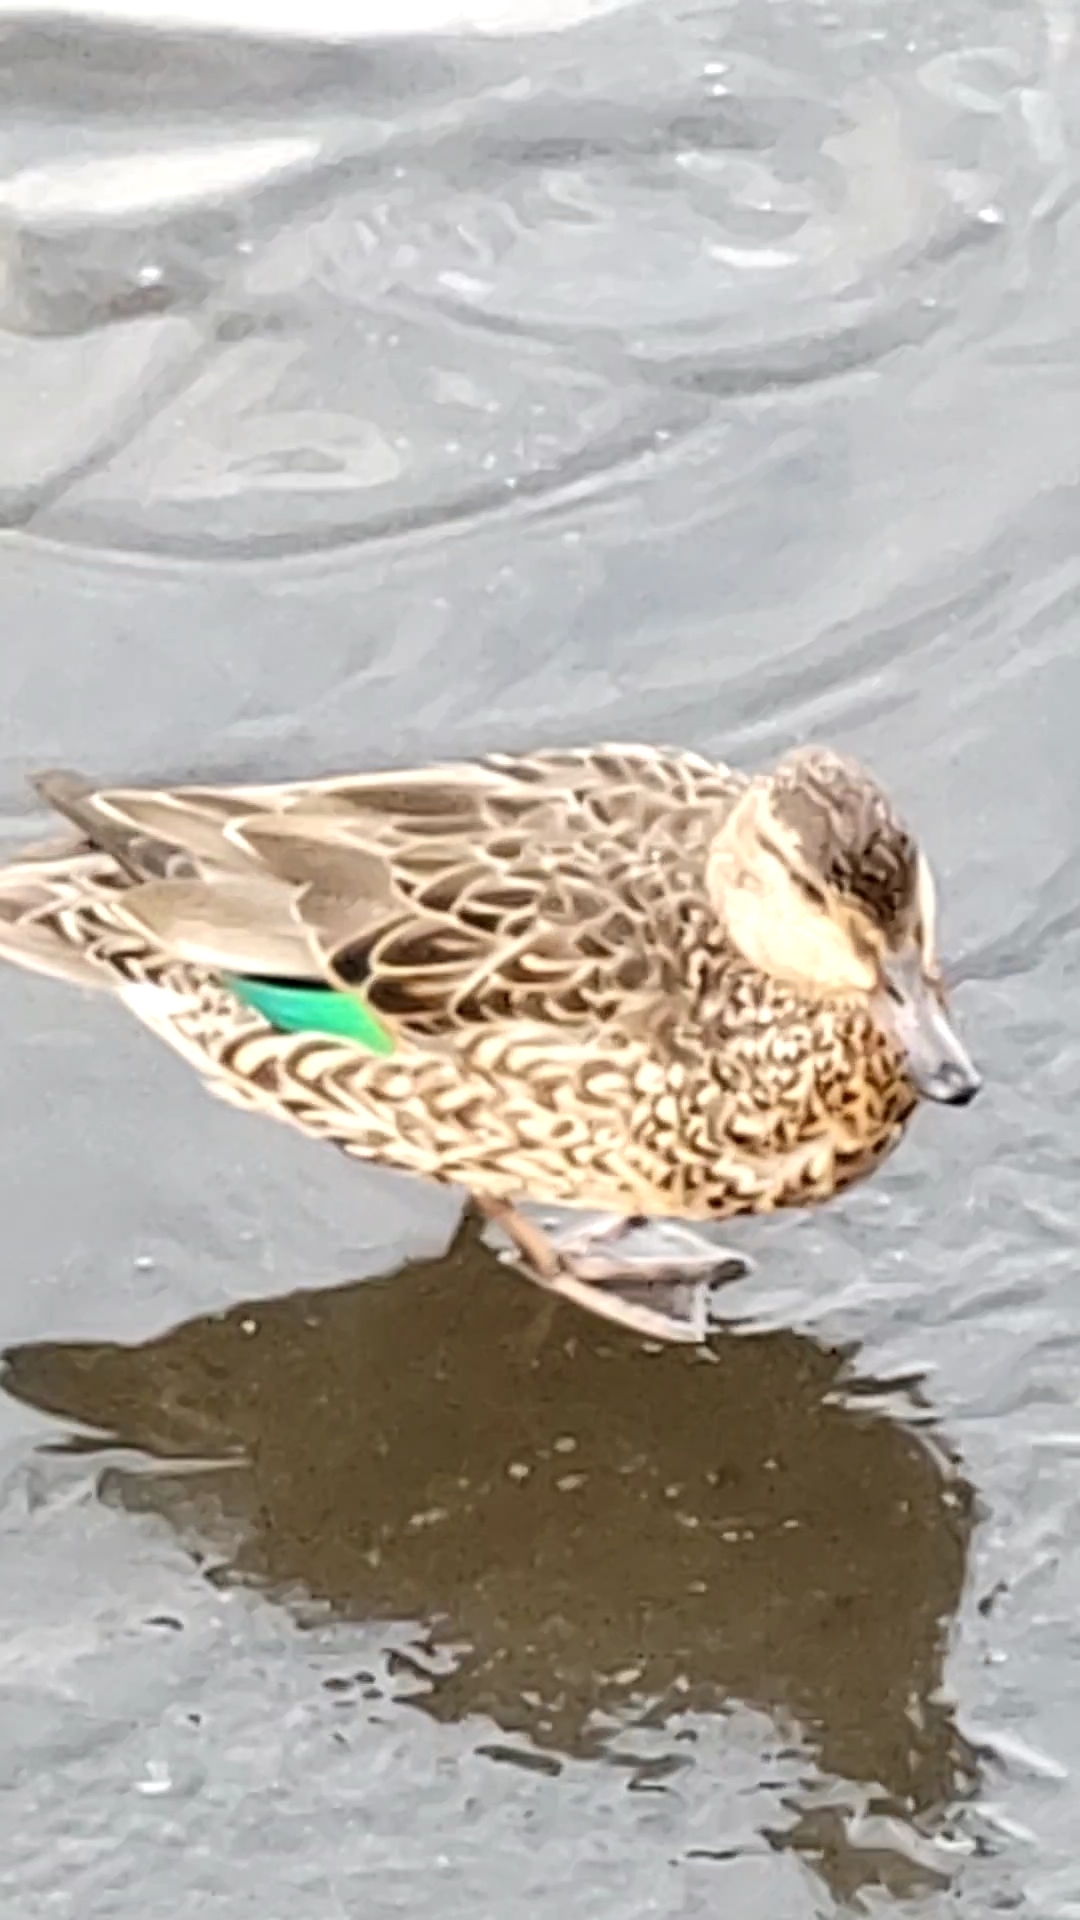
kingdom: Animalia
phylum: Chordata
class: Aves
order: Anseriformes
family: Anatidae
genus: Anas
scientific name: Anas crecca
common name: Eurasian teal
